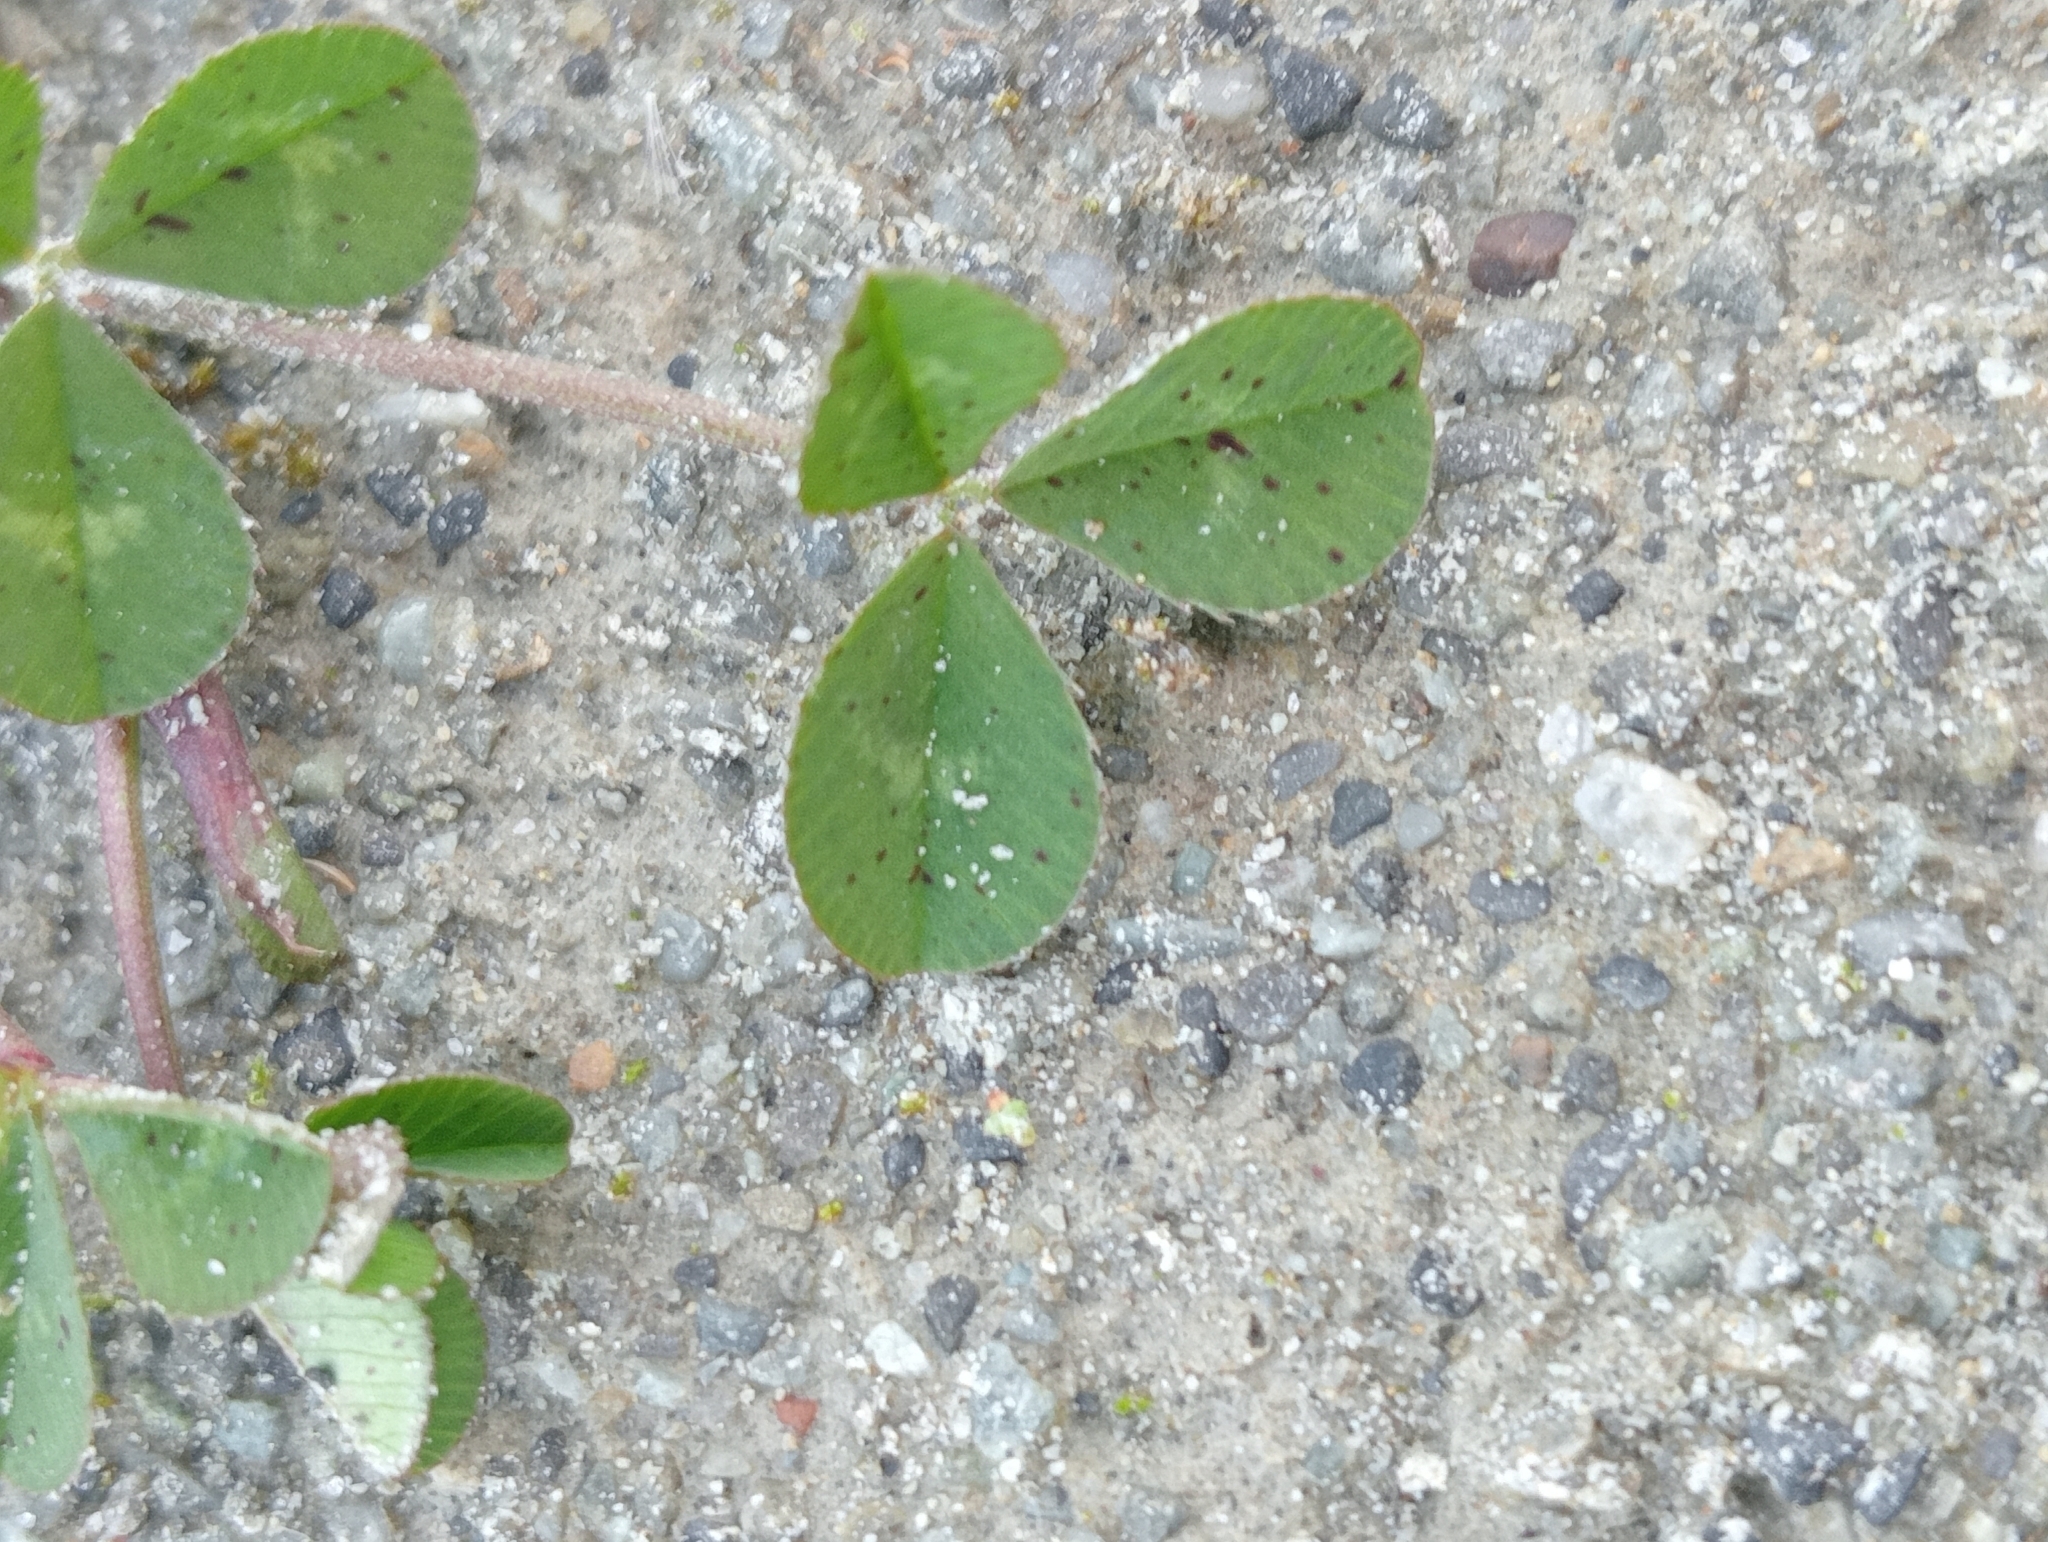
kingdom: Plantae
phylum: Tracheophyta
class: Magnoliopsida
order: Fabales
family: Fabaceae
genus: Trifolium
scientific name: Trifolium subterraneum
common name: Subterranean clover
